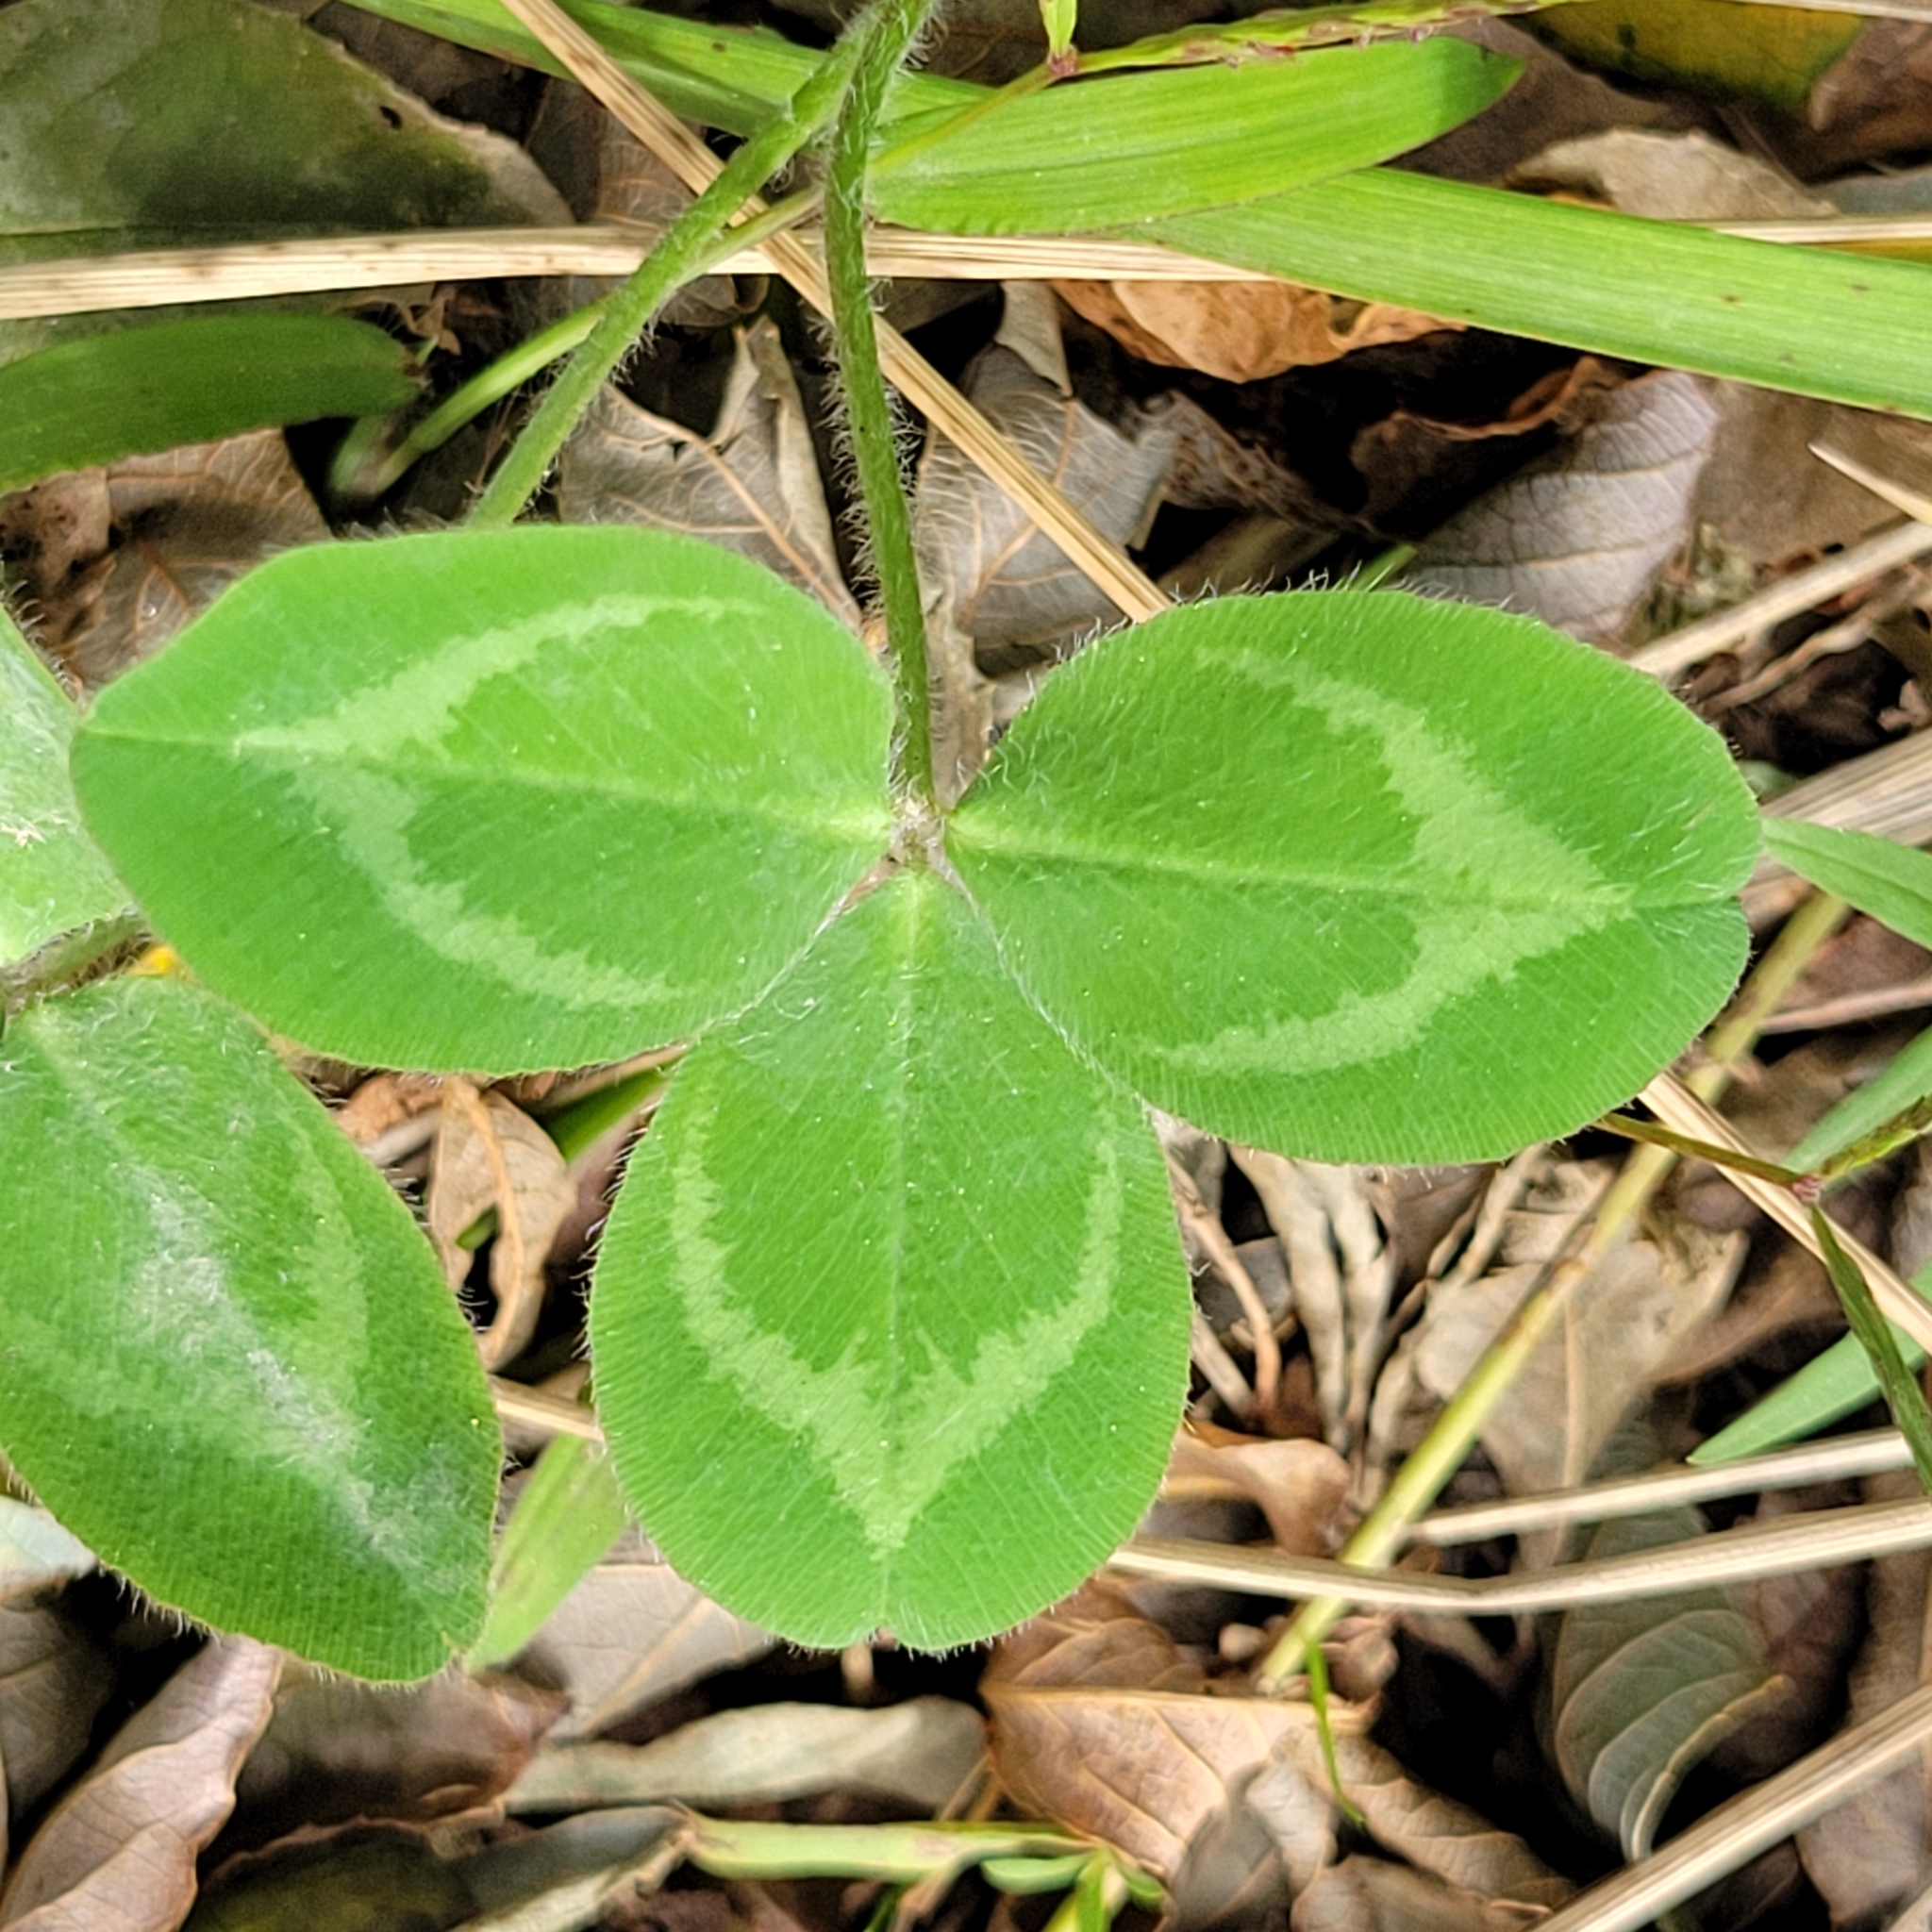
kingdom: Plantae
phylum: Tracheophyta
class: Magnoliopsida
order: Fabales
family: Fabaceae
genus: Trifolium
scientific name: Trifolium pratense
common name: Red clover
